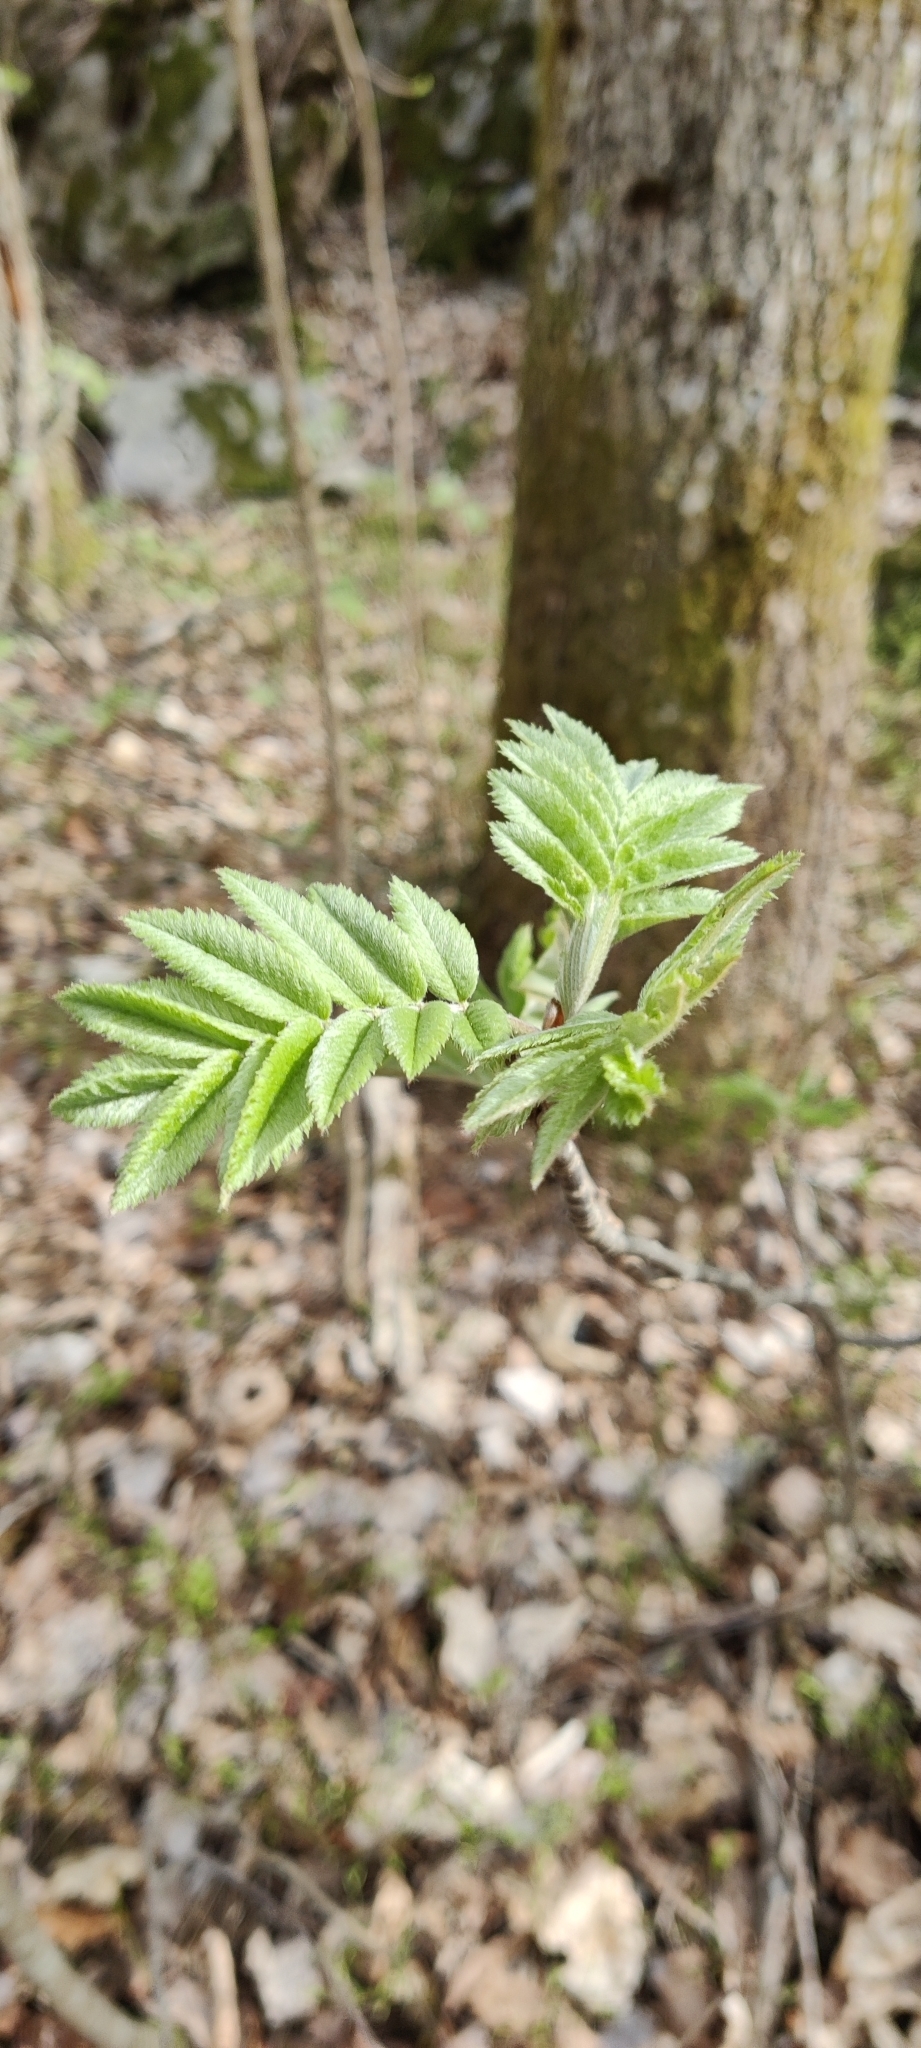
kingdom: Plantae
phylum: Tracheophyta
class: Magnoliopsida
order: Rosales
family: Rosaceae
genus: Sorbus
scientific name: Sorbus aucuparia
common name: Rowan
